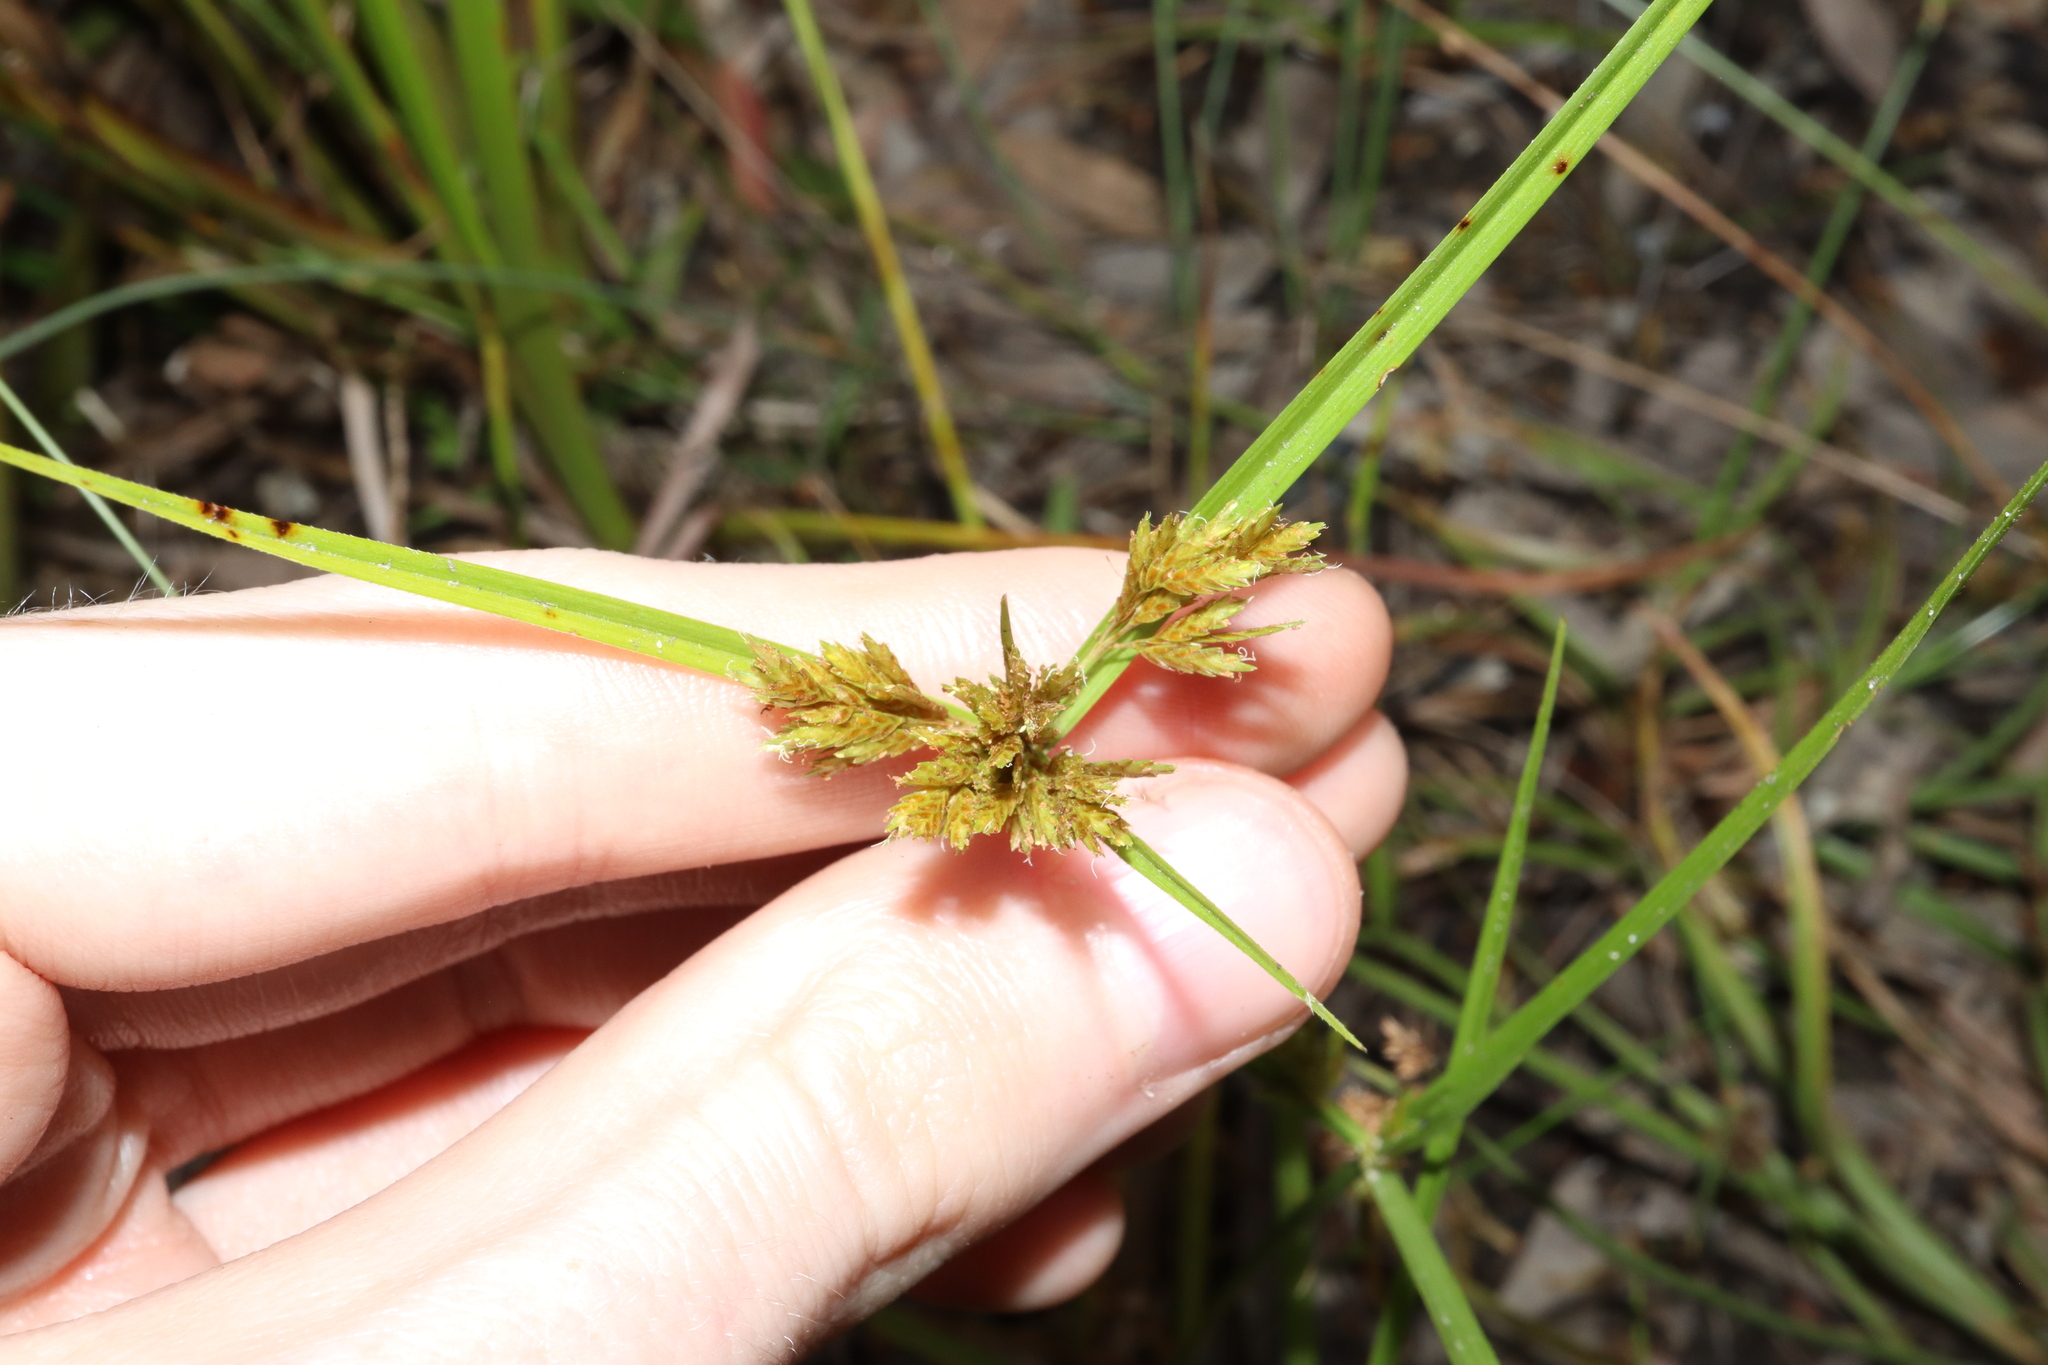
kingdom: Plantae
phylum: Tracheophyta
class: Liliopsida
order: Poales
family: Cyperaceae
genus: Cyperus
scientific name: Cyperus polystachyos
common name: Bunchy flat sedge
